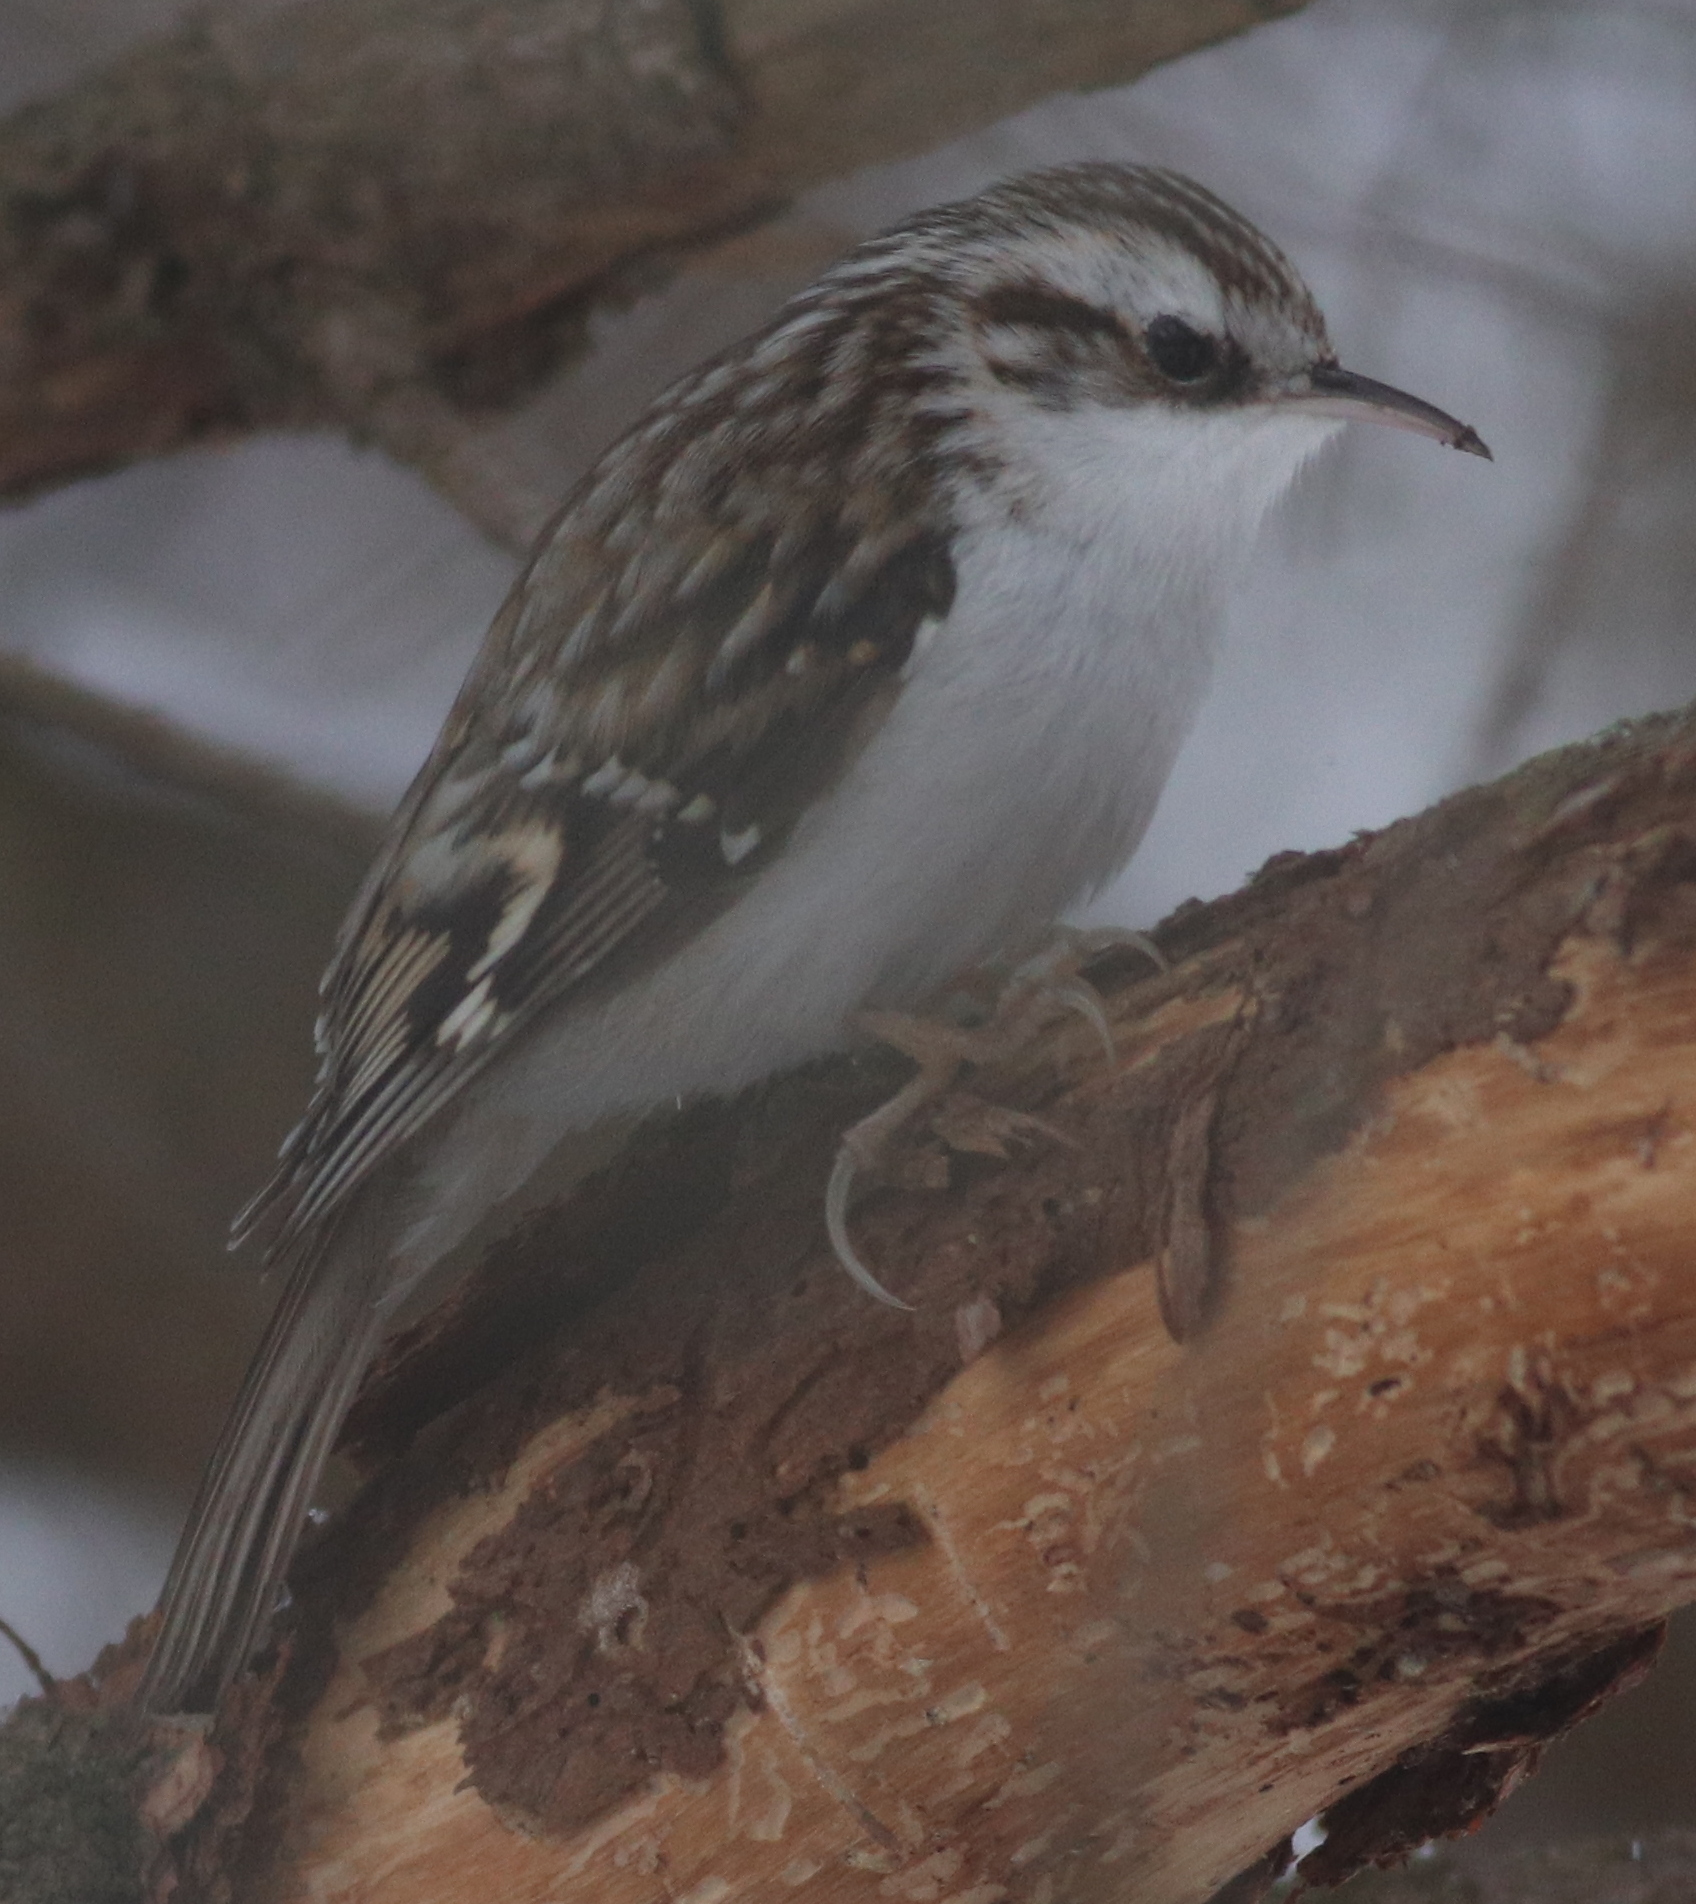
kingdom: Animalia
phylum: Chordata
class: Aves
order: Passeriformes
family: Certhiidae
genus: Certhia
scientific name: Certhia familiaris
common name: Eurasian treecreeper
